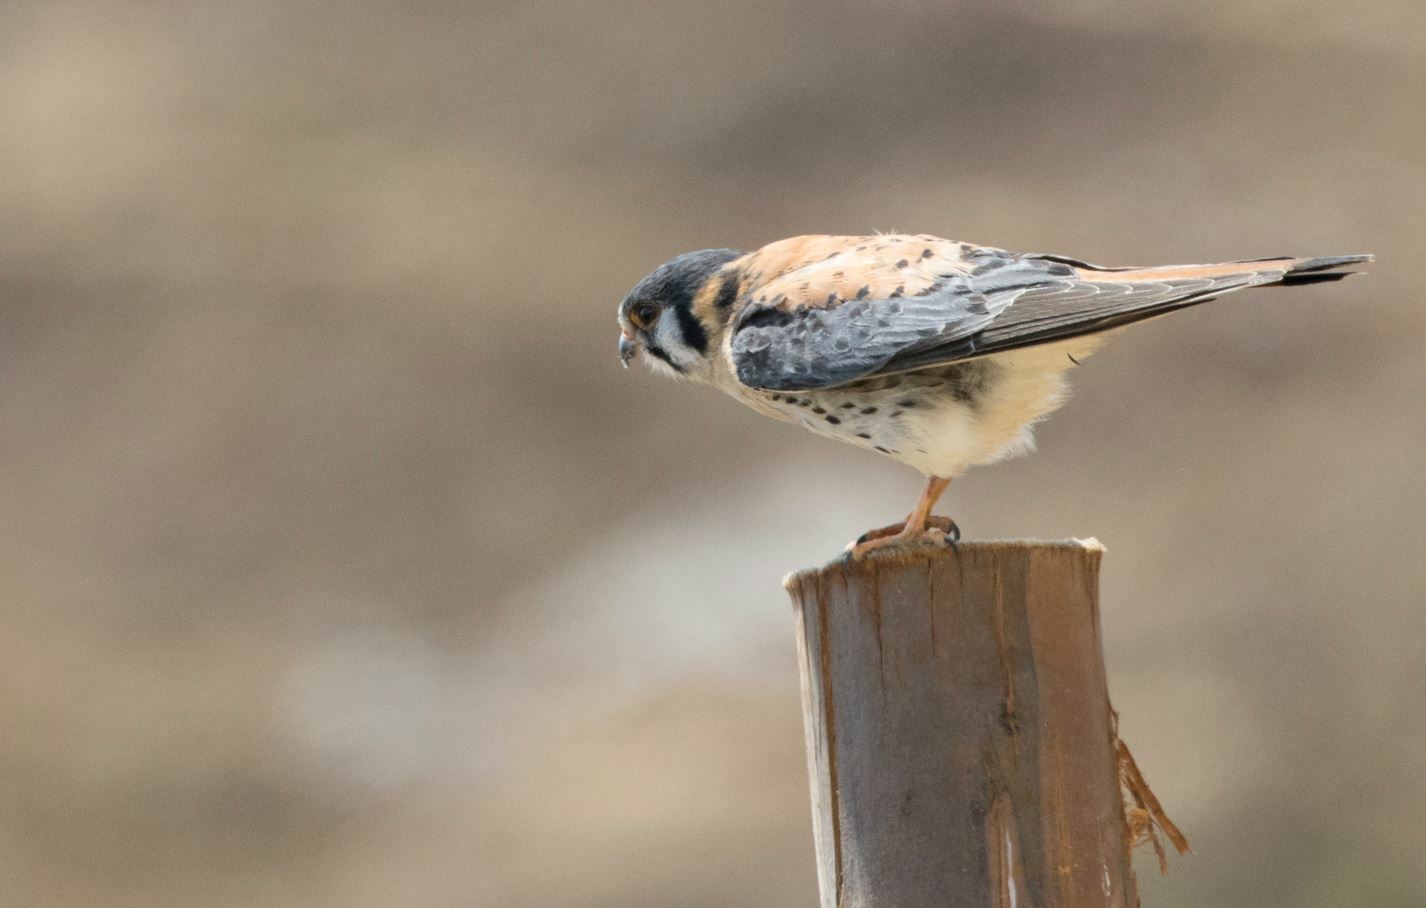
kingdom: Animalia
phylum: Chordata
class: Aves
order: Falconiformes
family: Falconidae
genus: Falco
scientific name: Falco sparverius
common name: American kestrel
